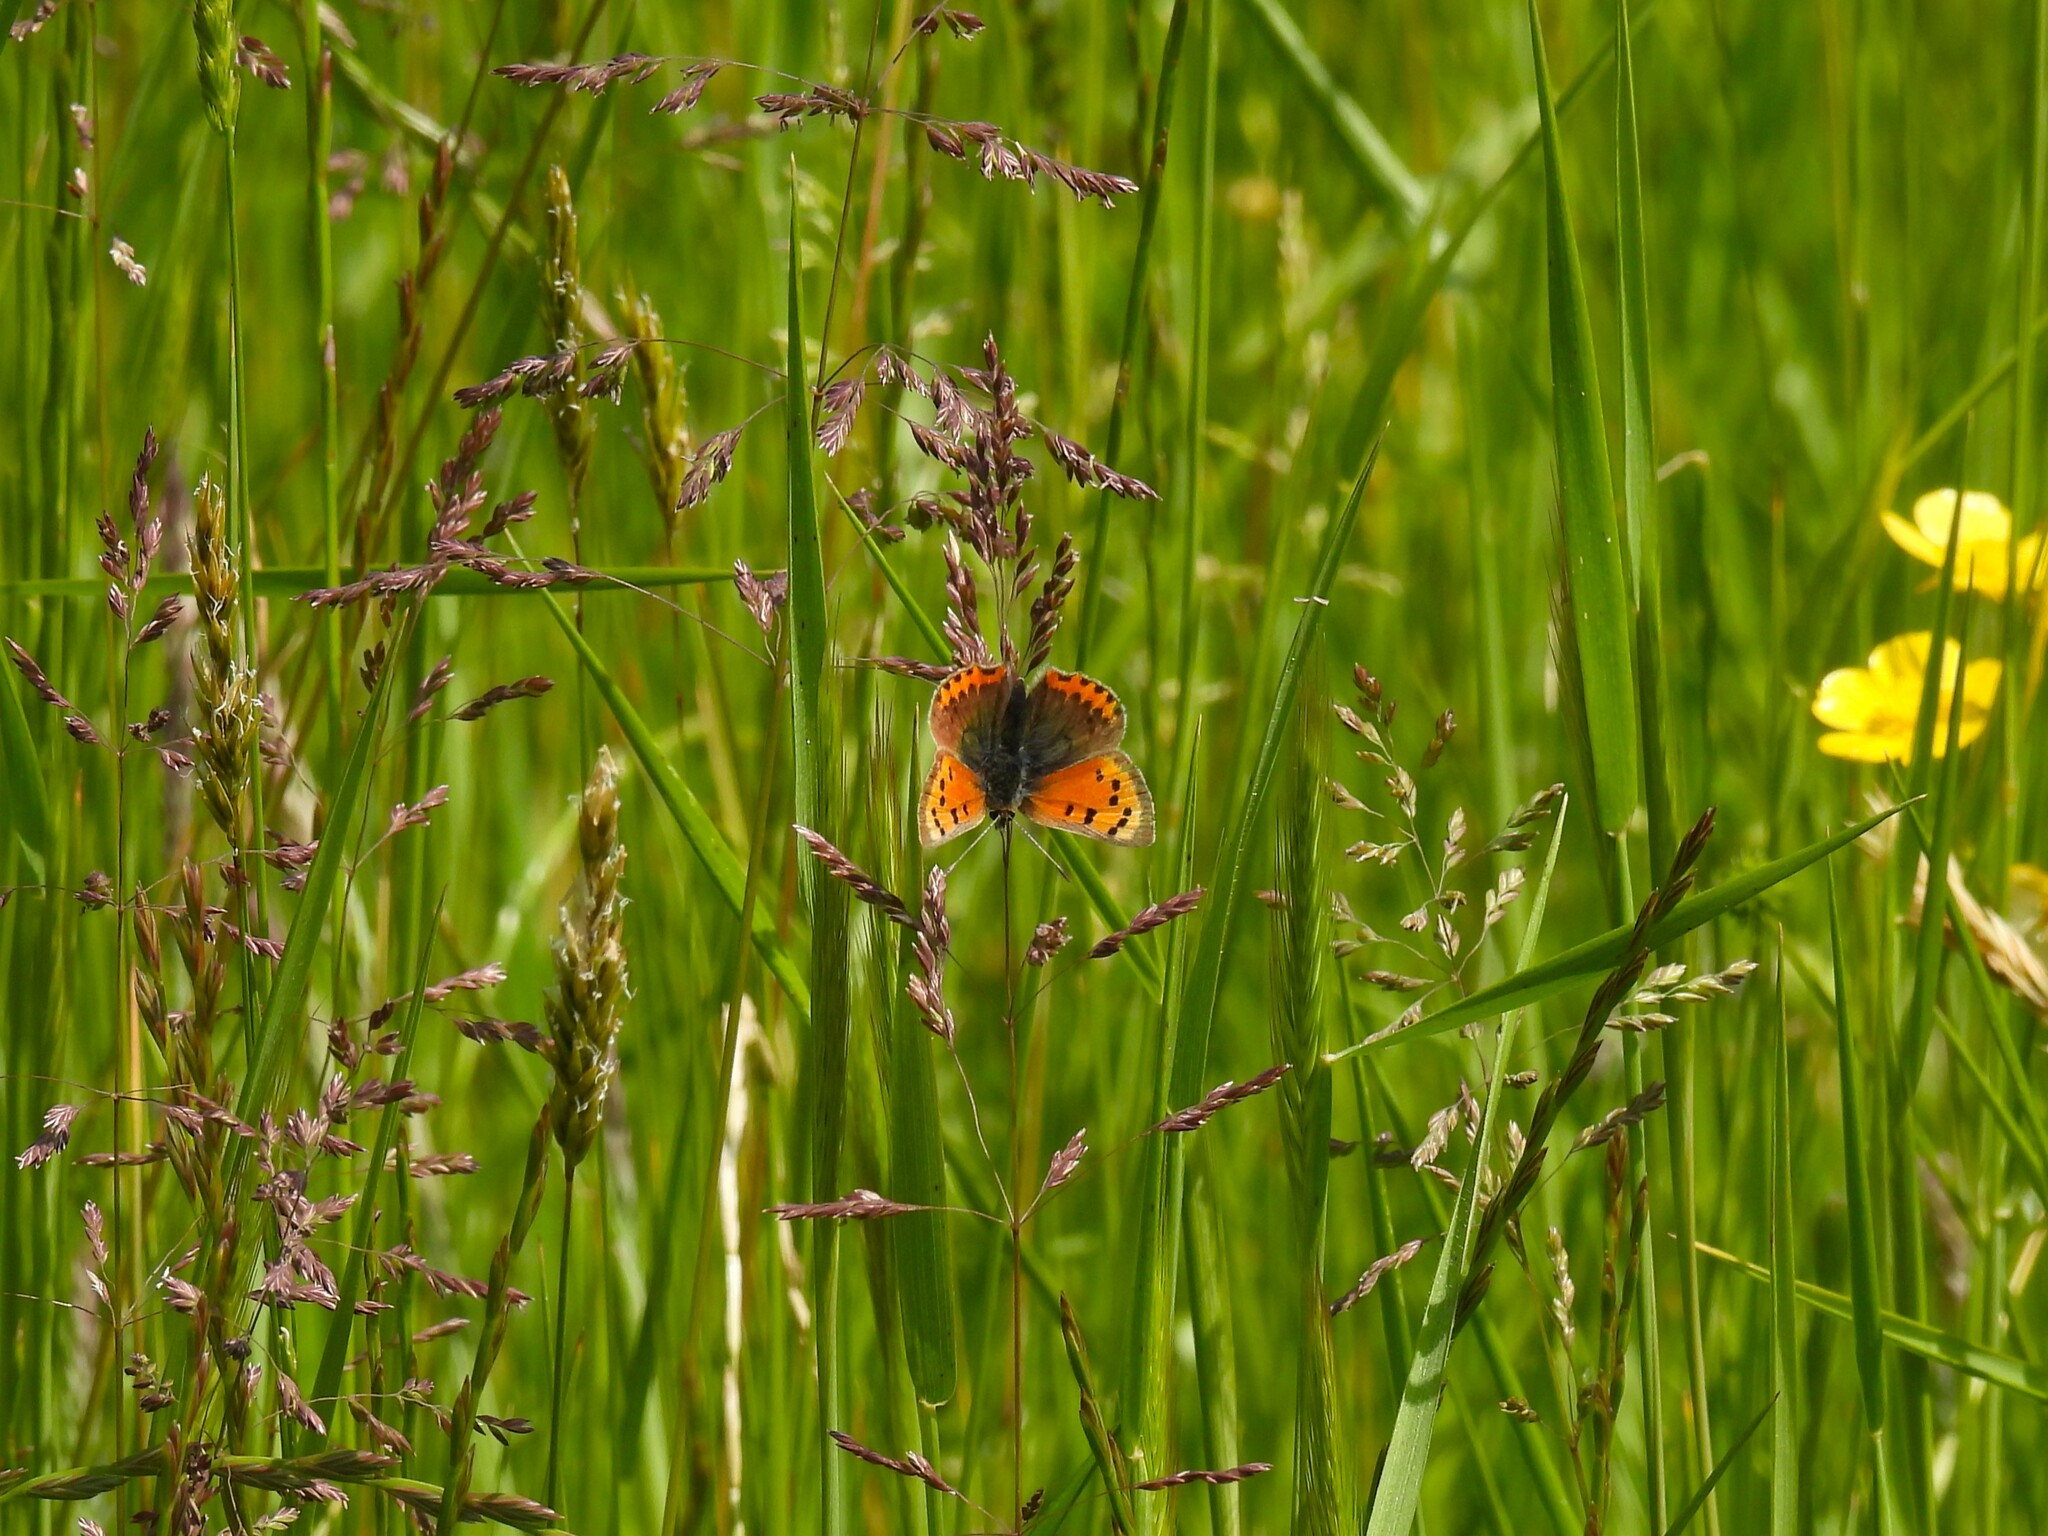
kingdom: Animalia
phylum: Arthropoda
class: Insecta
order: Lepidoptera
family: Lycaenidae
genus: Lycaena
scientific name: Lycaena phlaeas
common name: Small copper
